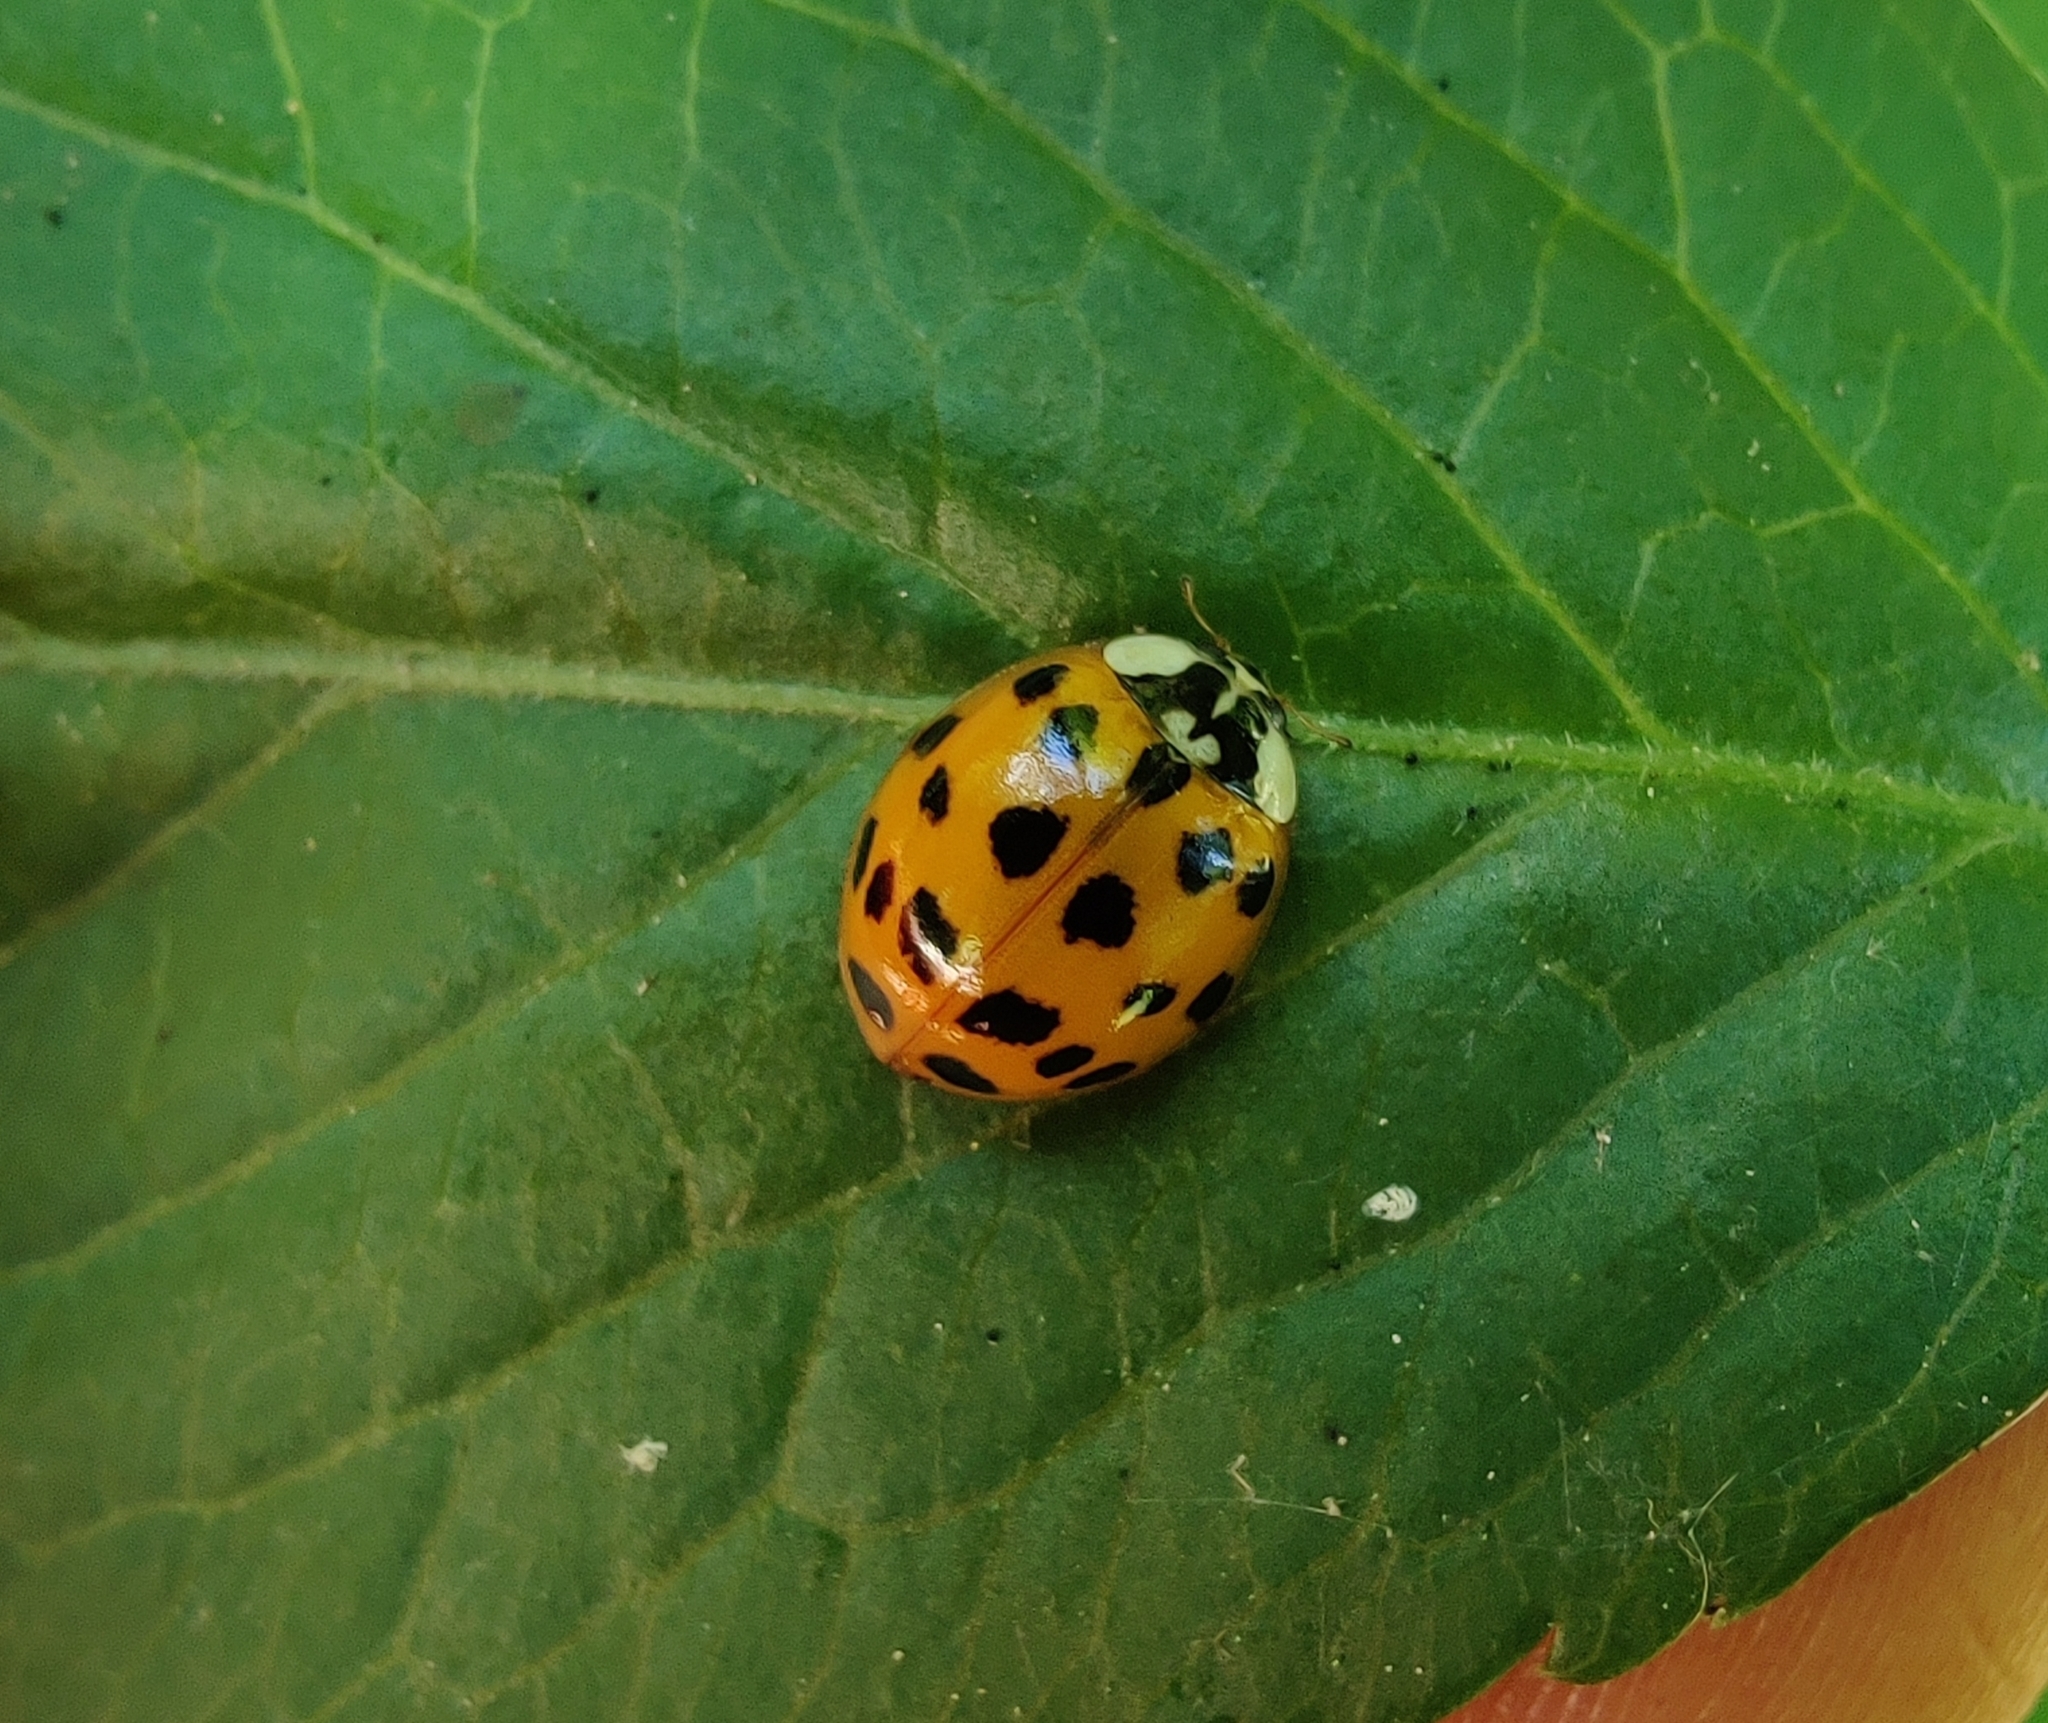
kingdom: Animalia
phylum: Arthropoda
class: Insecta
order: Coleoptera
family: Coccinellidae
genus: Harmonia
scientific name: Harmonia axyridis
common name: Harlequin ladybird
